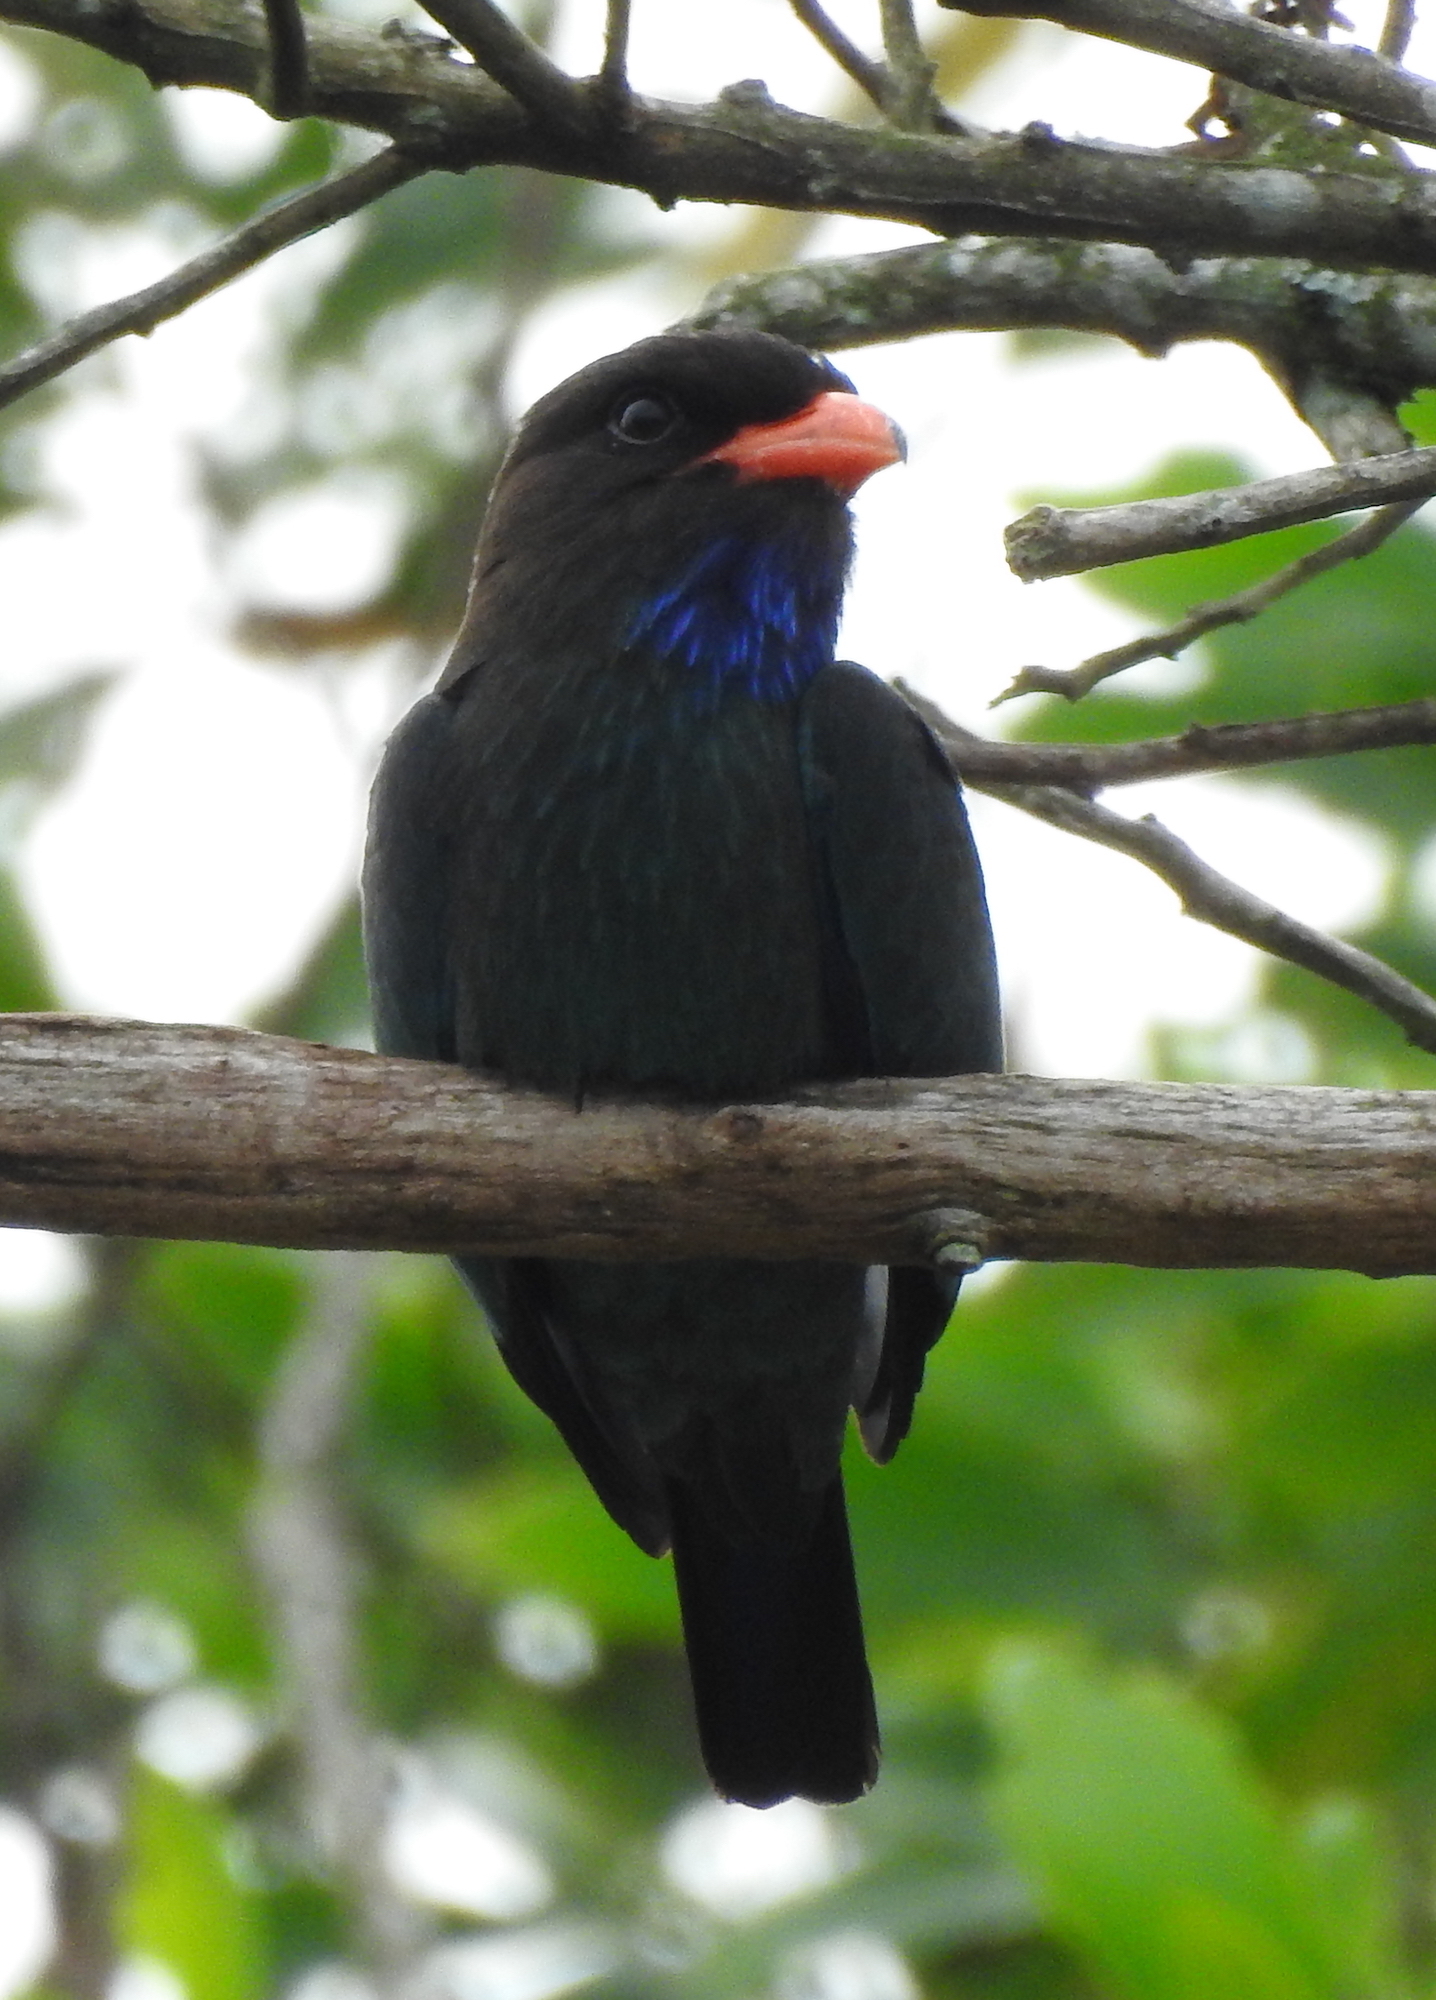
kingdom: Animalia
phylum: Chordata
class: Aves
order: Coraciiformes
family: Coraciidae
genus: Eurystomus
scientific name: Eurystomus orientalis
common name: Oriental dollarbird
